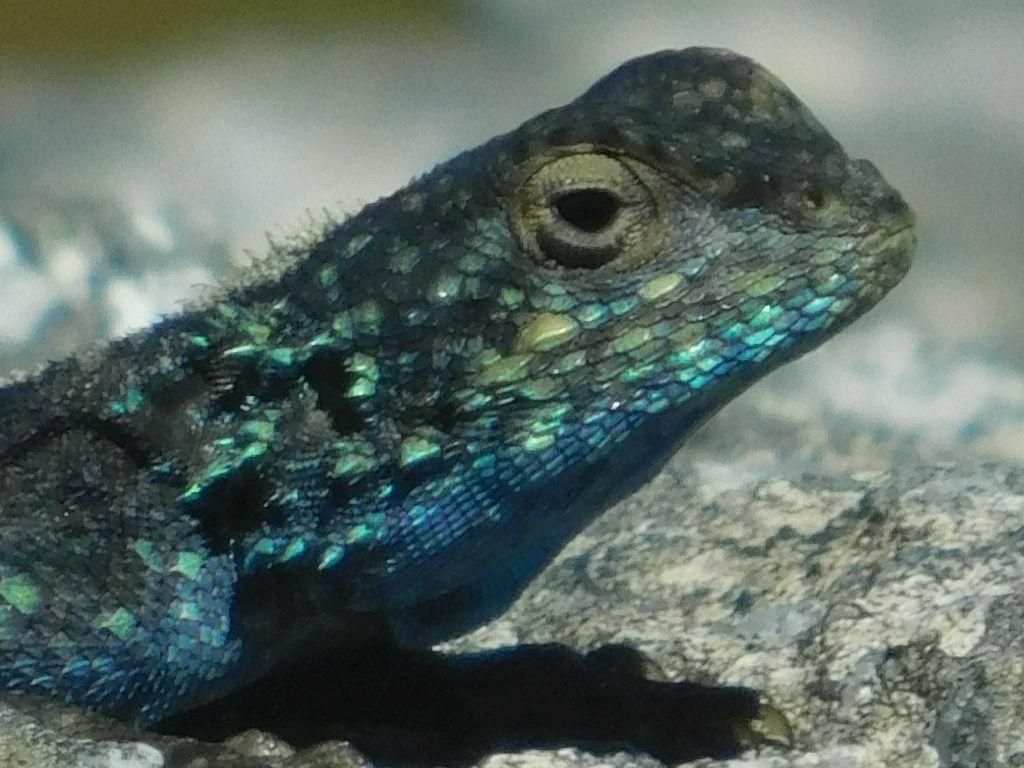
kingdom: Animalia
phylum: Chordata
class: Squamata
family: Agamidae
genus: Agama
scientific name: Agama atra
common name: Southern african rock agama
